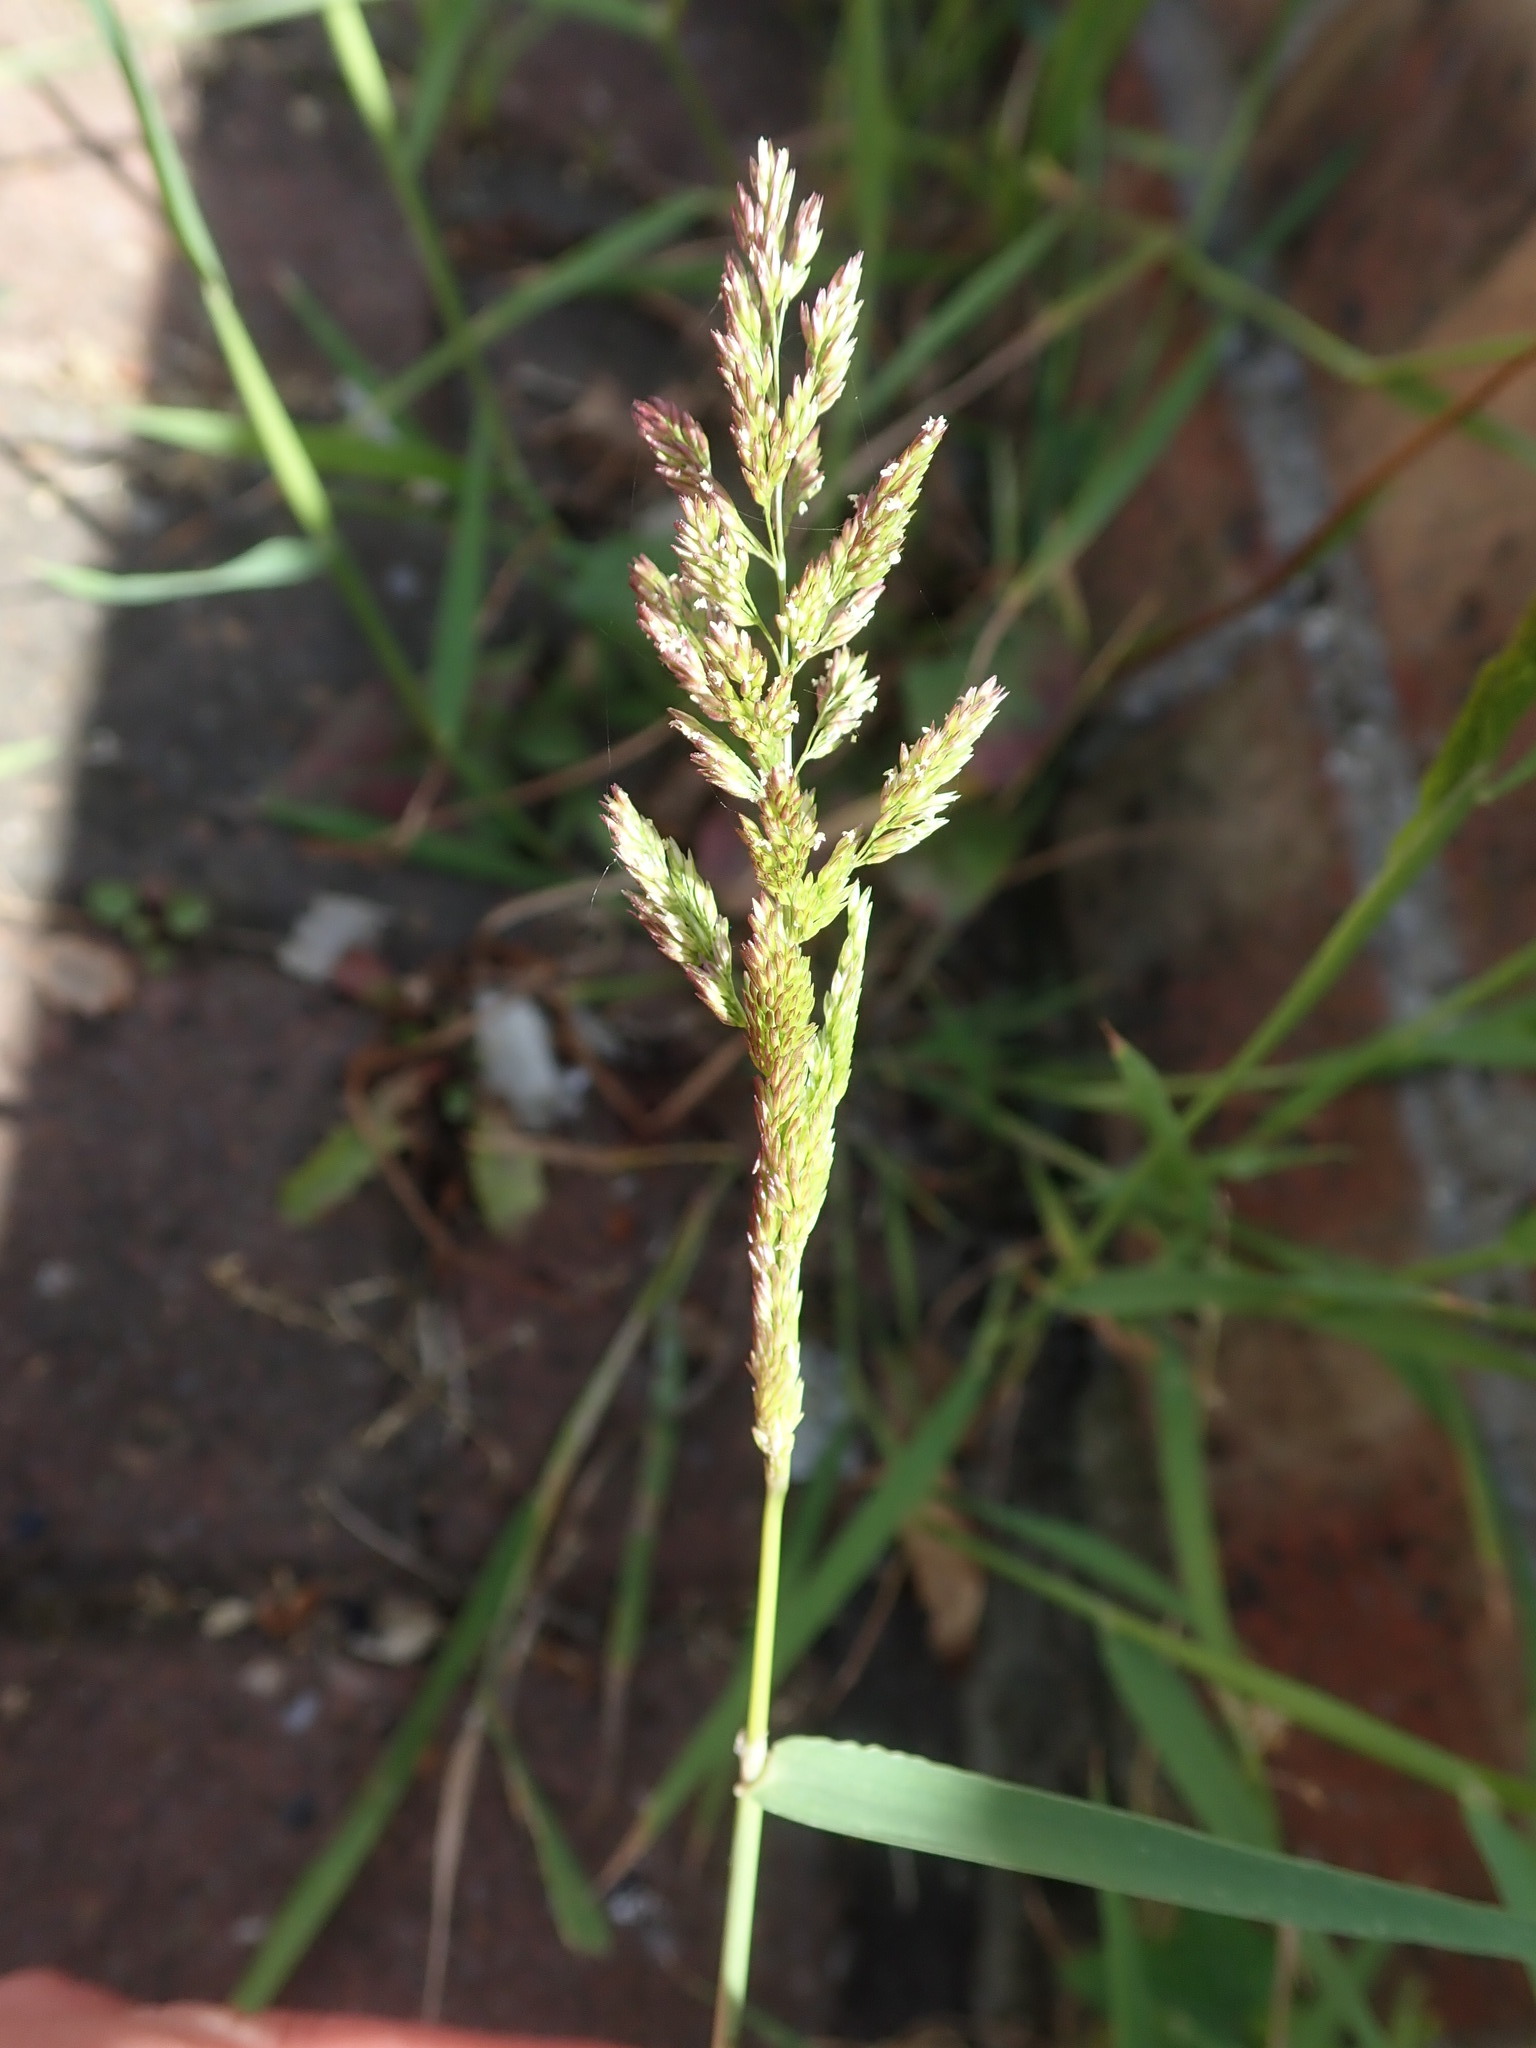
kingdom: Plantae
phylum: Tracheophyta
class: Liliopsida
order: Poales
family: Poaceae
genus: Polypogon
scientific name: Polypogon viridis
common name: Water bent
